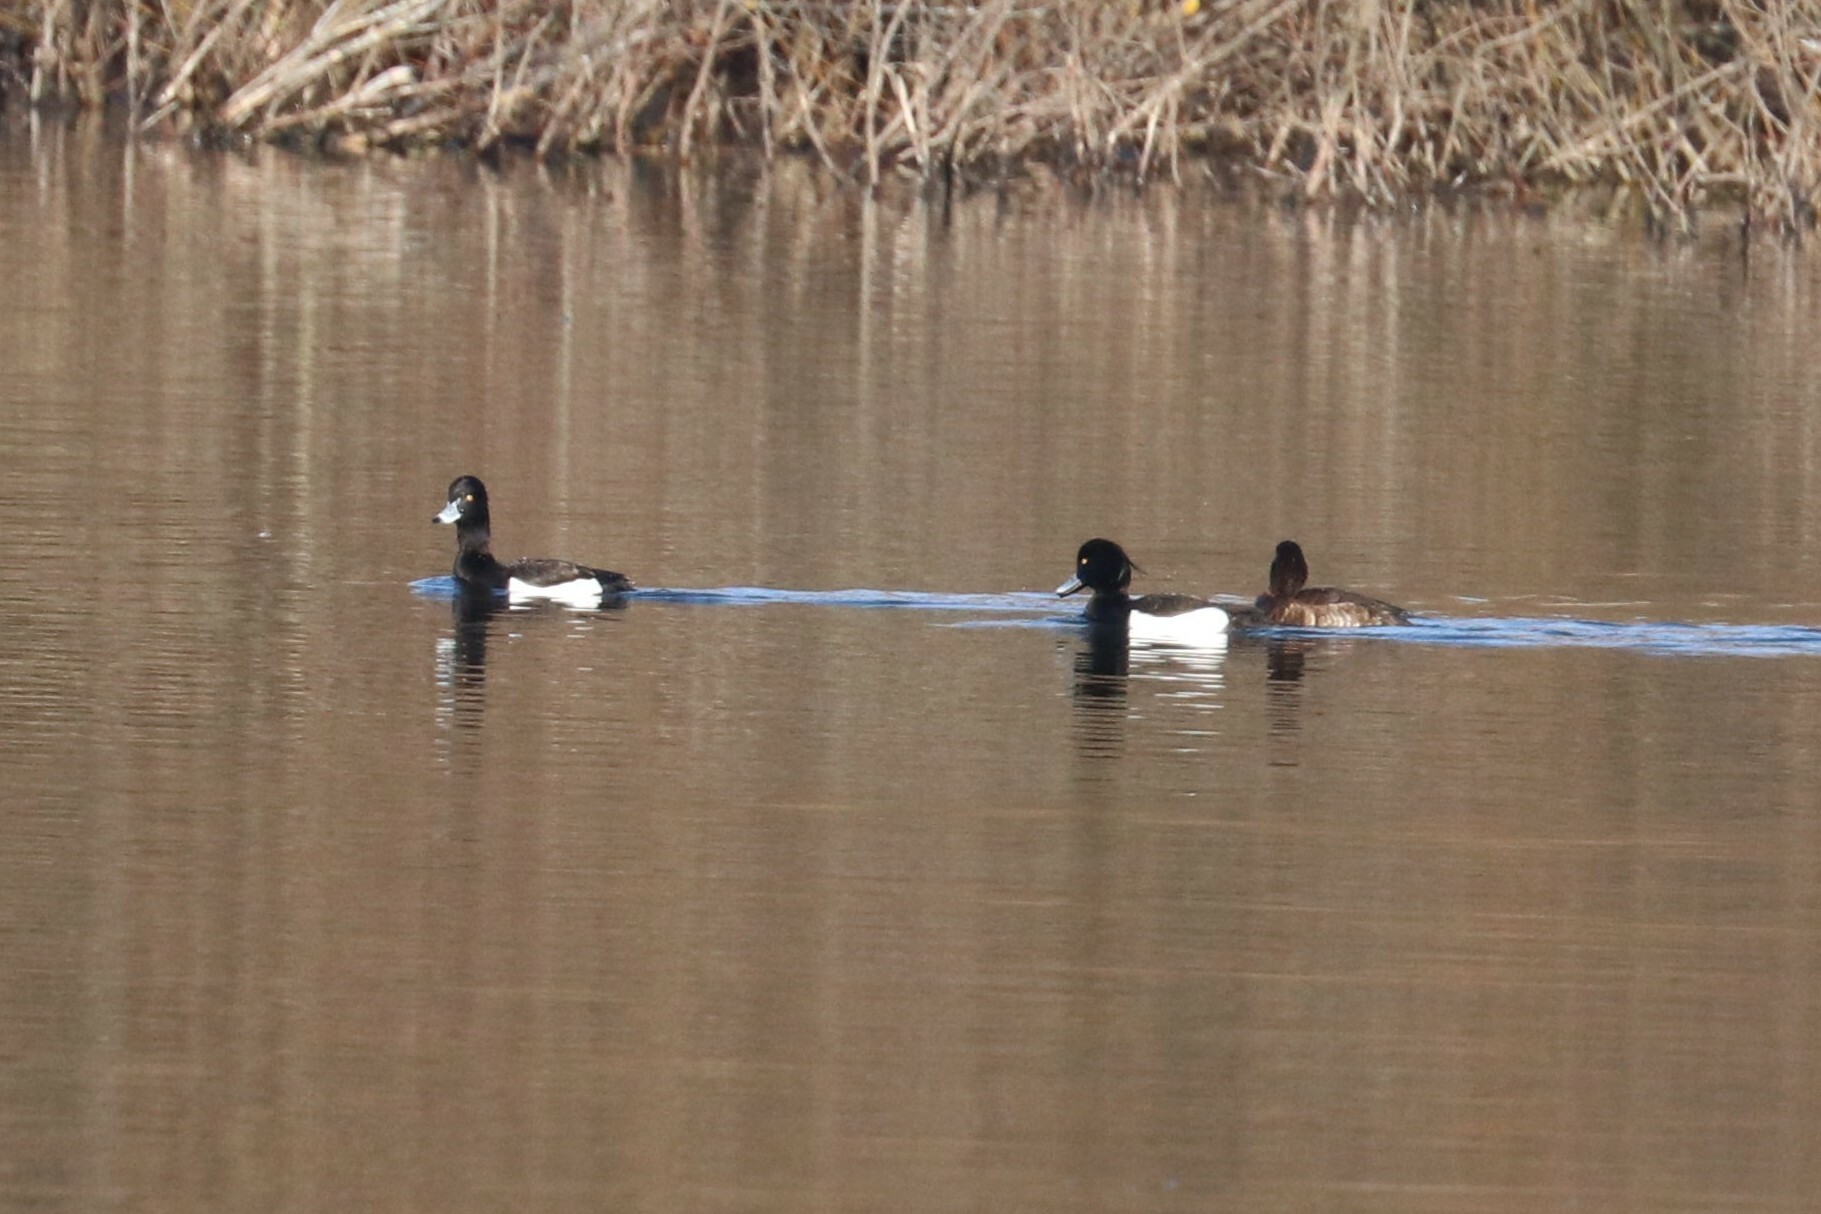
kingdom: Animalia
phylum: Chordata
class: Aves
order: Anseriformes
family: Anatidae
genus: Aythya
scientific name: Aythya fuligula
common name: Tufted duck
